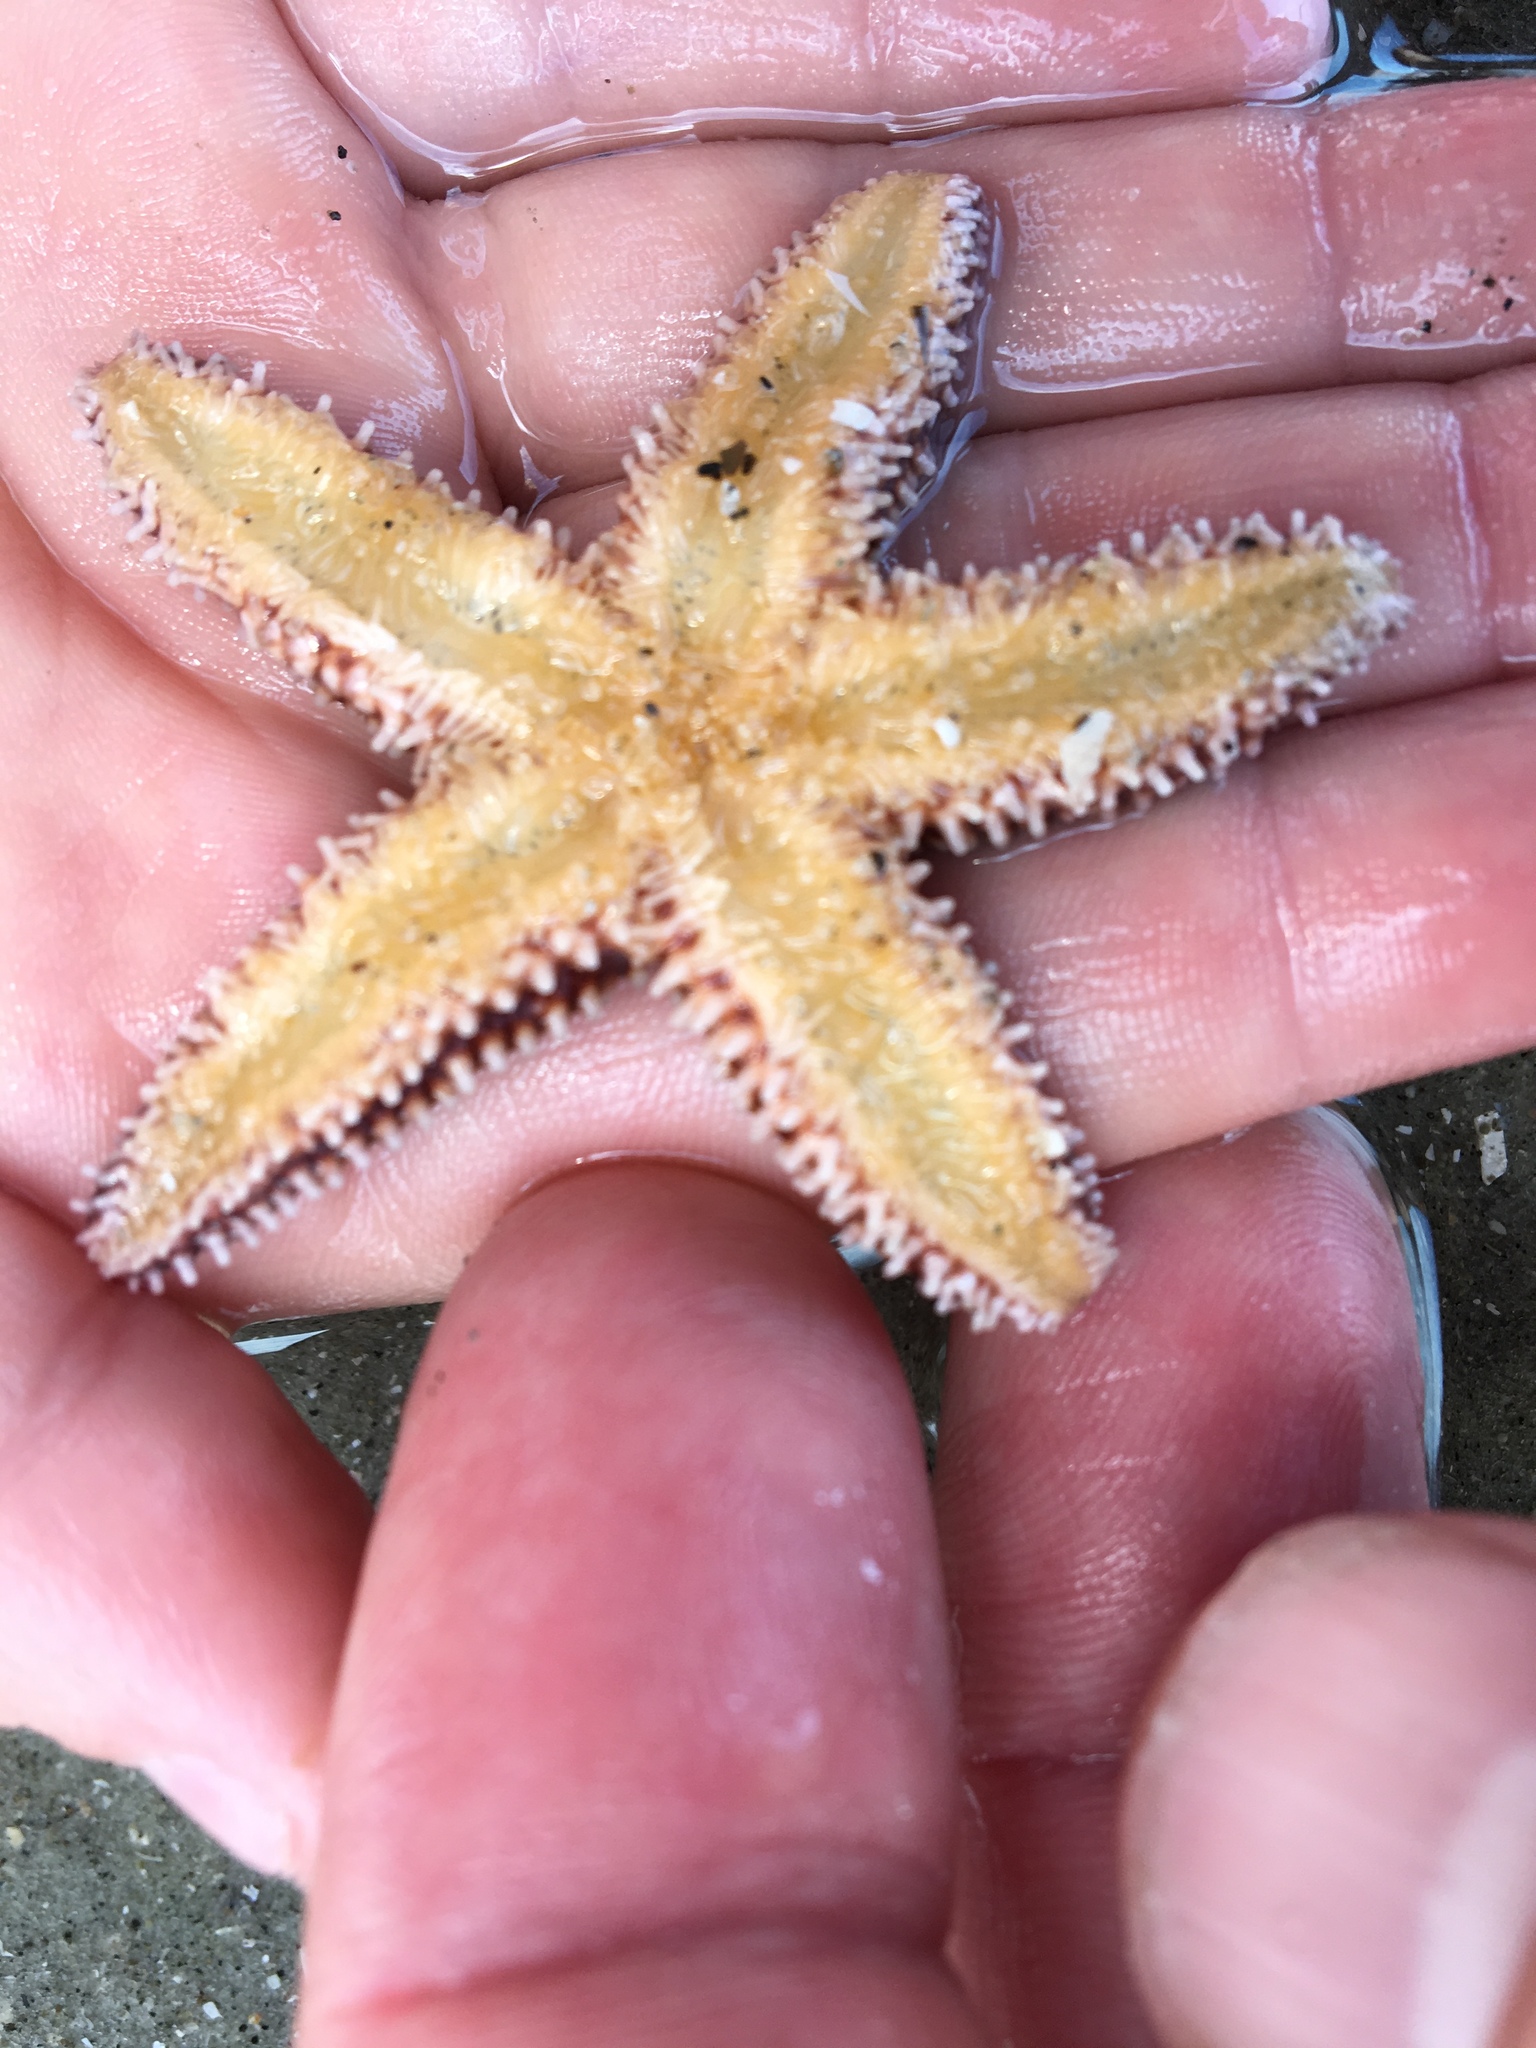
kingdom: Animalia
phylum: Echinodermata
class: Asteroidea
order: Forcipulatida
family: Asteriidae
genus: Asterias
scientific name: Asterias forbesi
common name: Forbes's sea star
